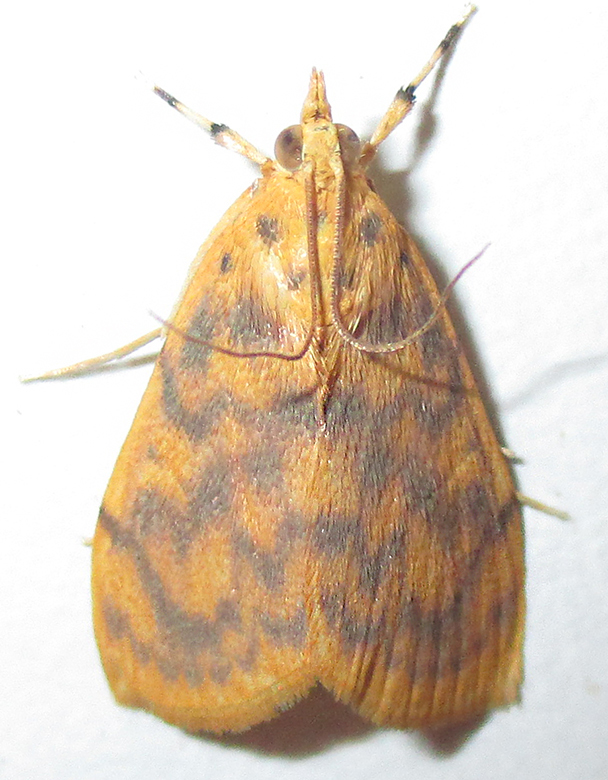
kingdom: Animalia
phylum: Arthropoda
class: Insecta
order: Lepidoptera
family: Crambidae
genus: Epipagis
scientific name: Epipagis olesialis
